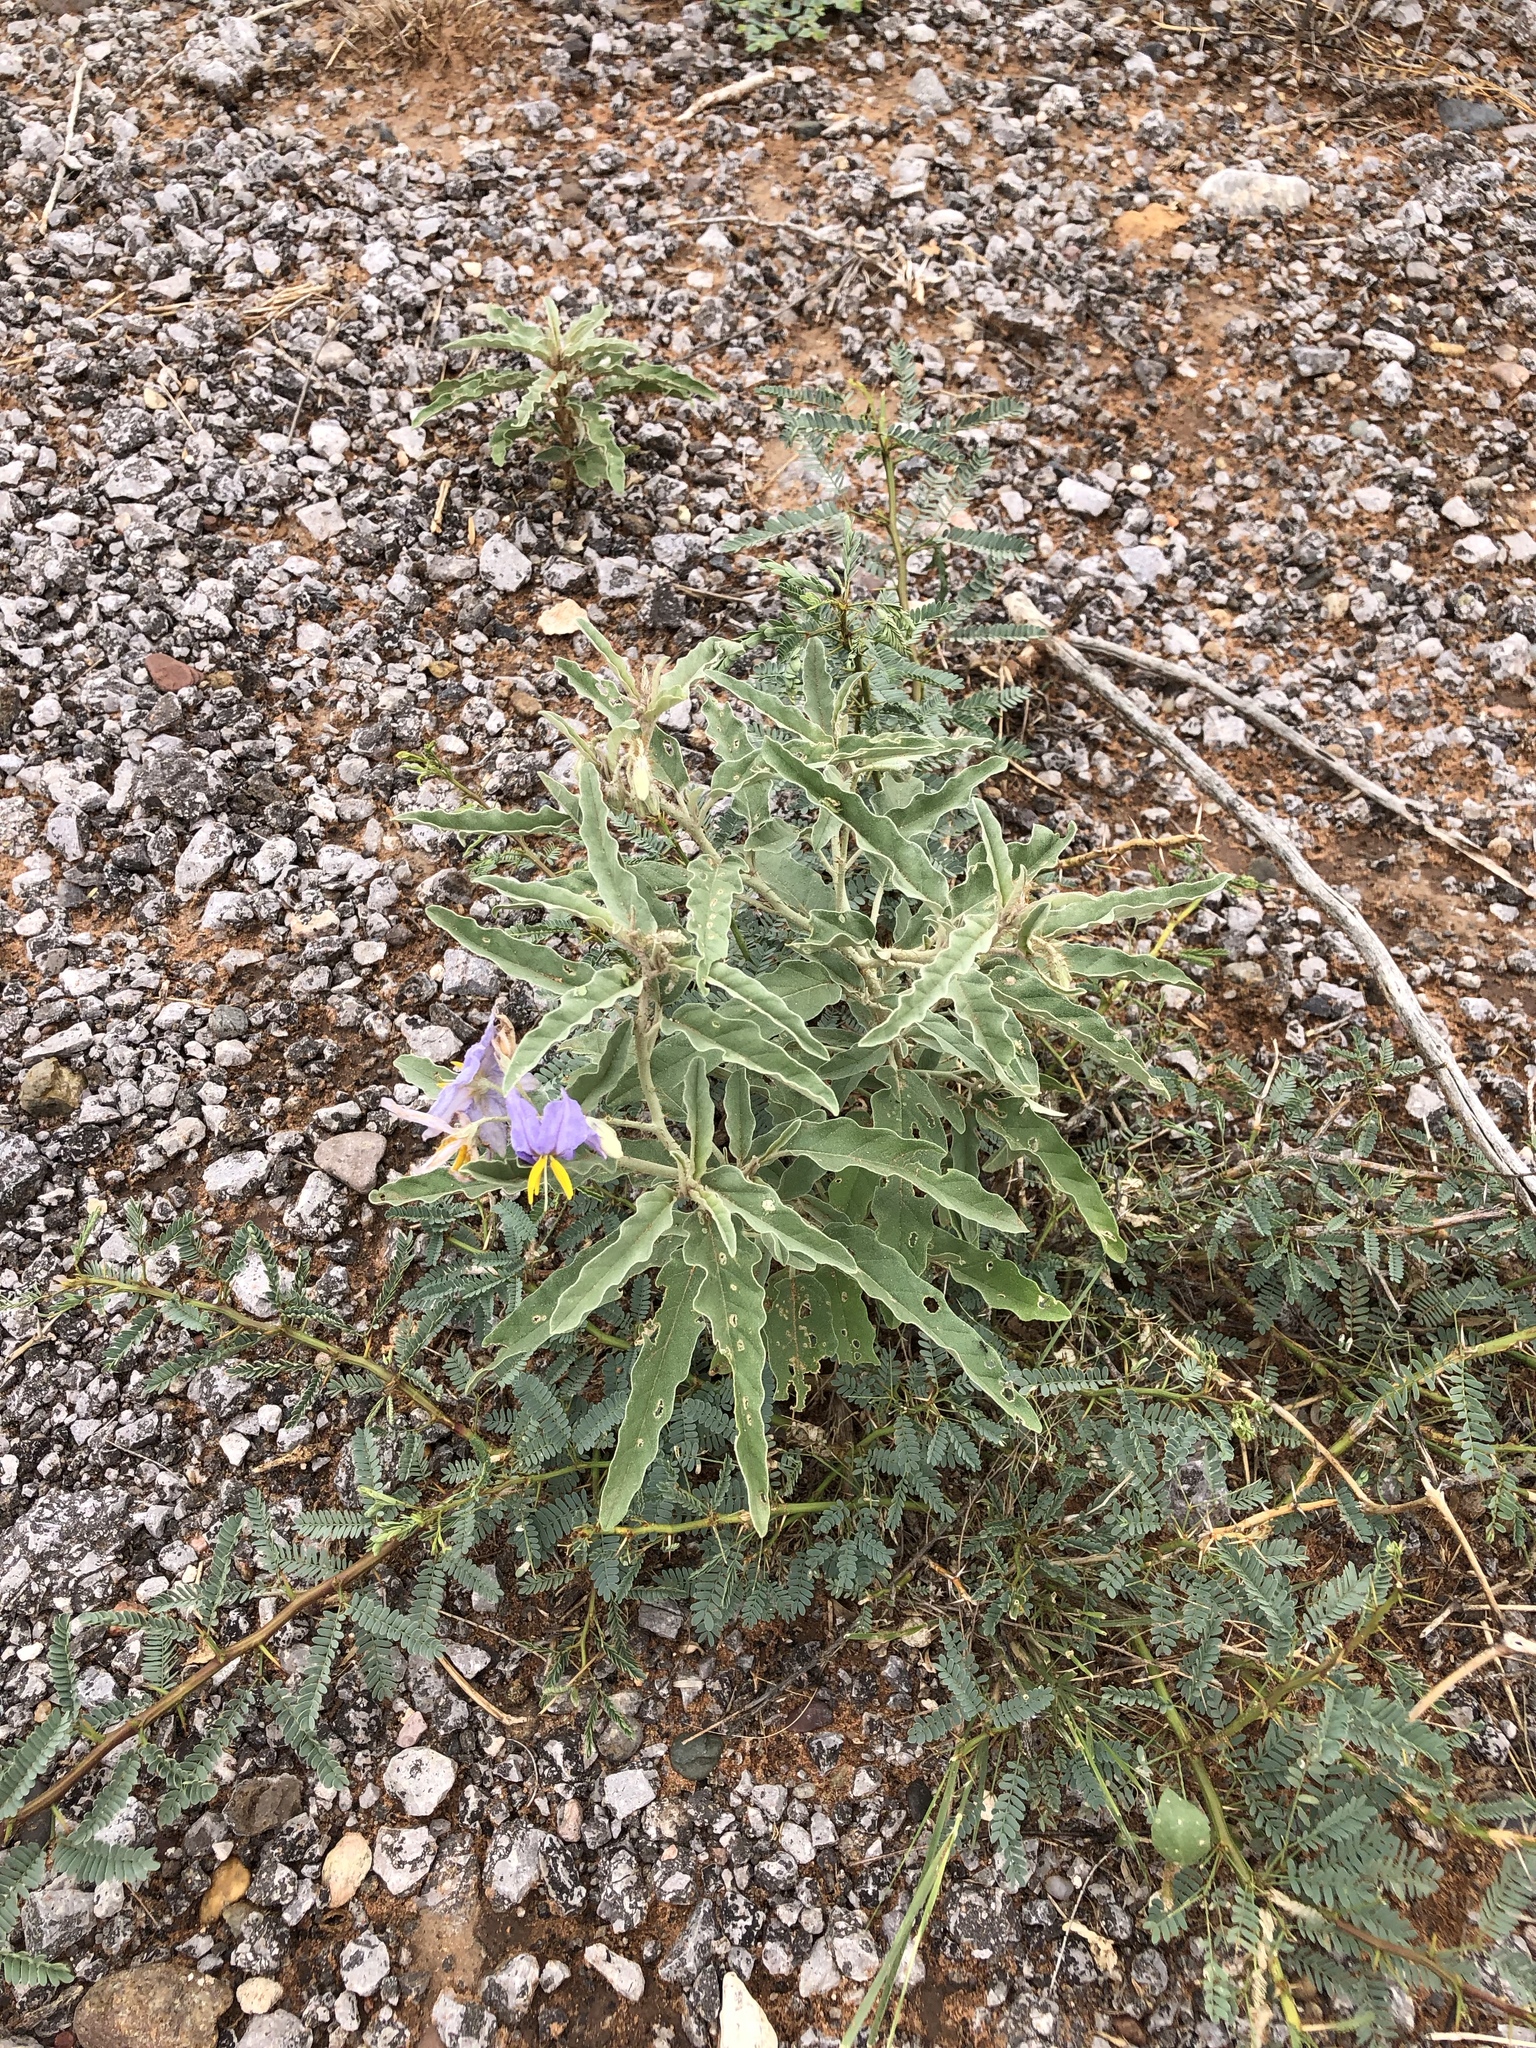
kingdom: Plantae
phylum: Tracheophyta
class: Magnoliopsida
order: Solanales
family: Solanaceae
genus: Solanum
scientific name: Solanum elaeagnifolium
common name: Silverleaf nightshade
